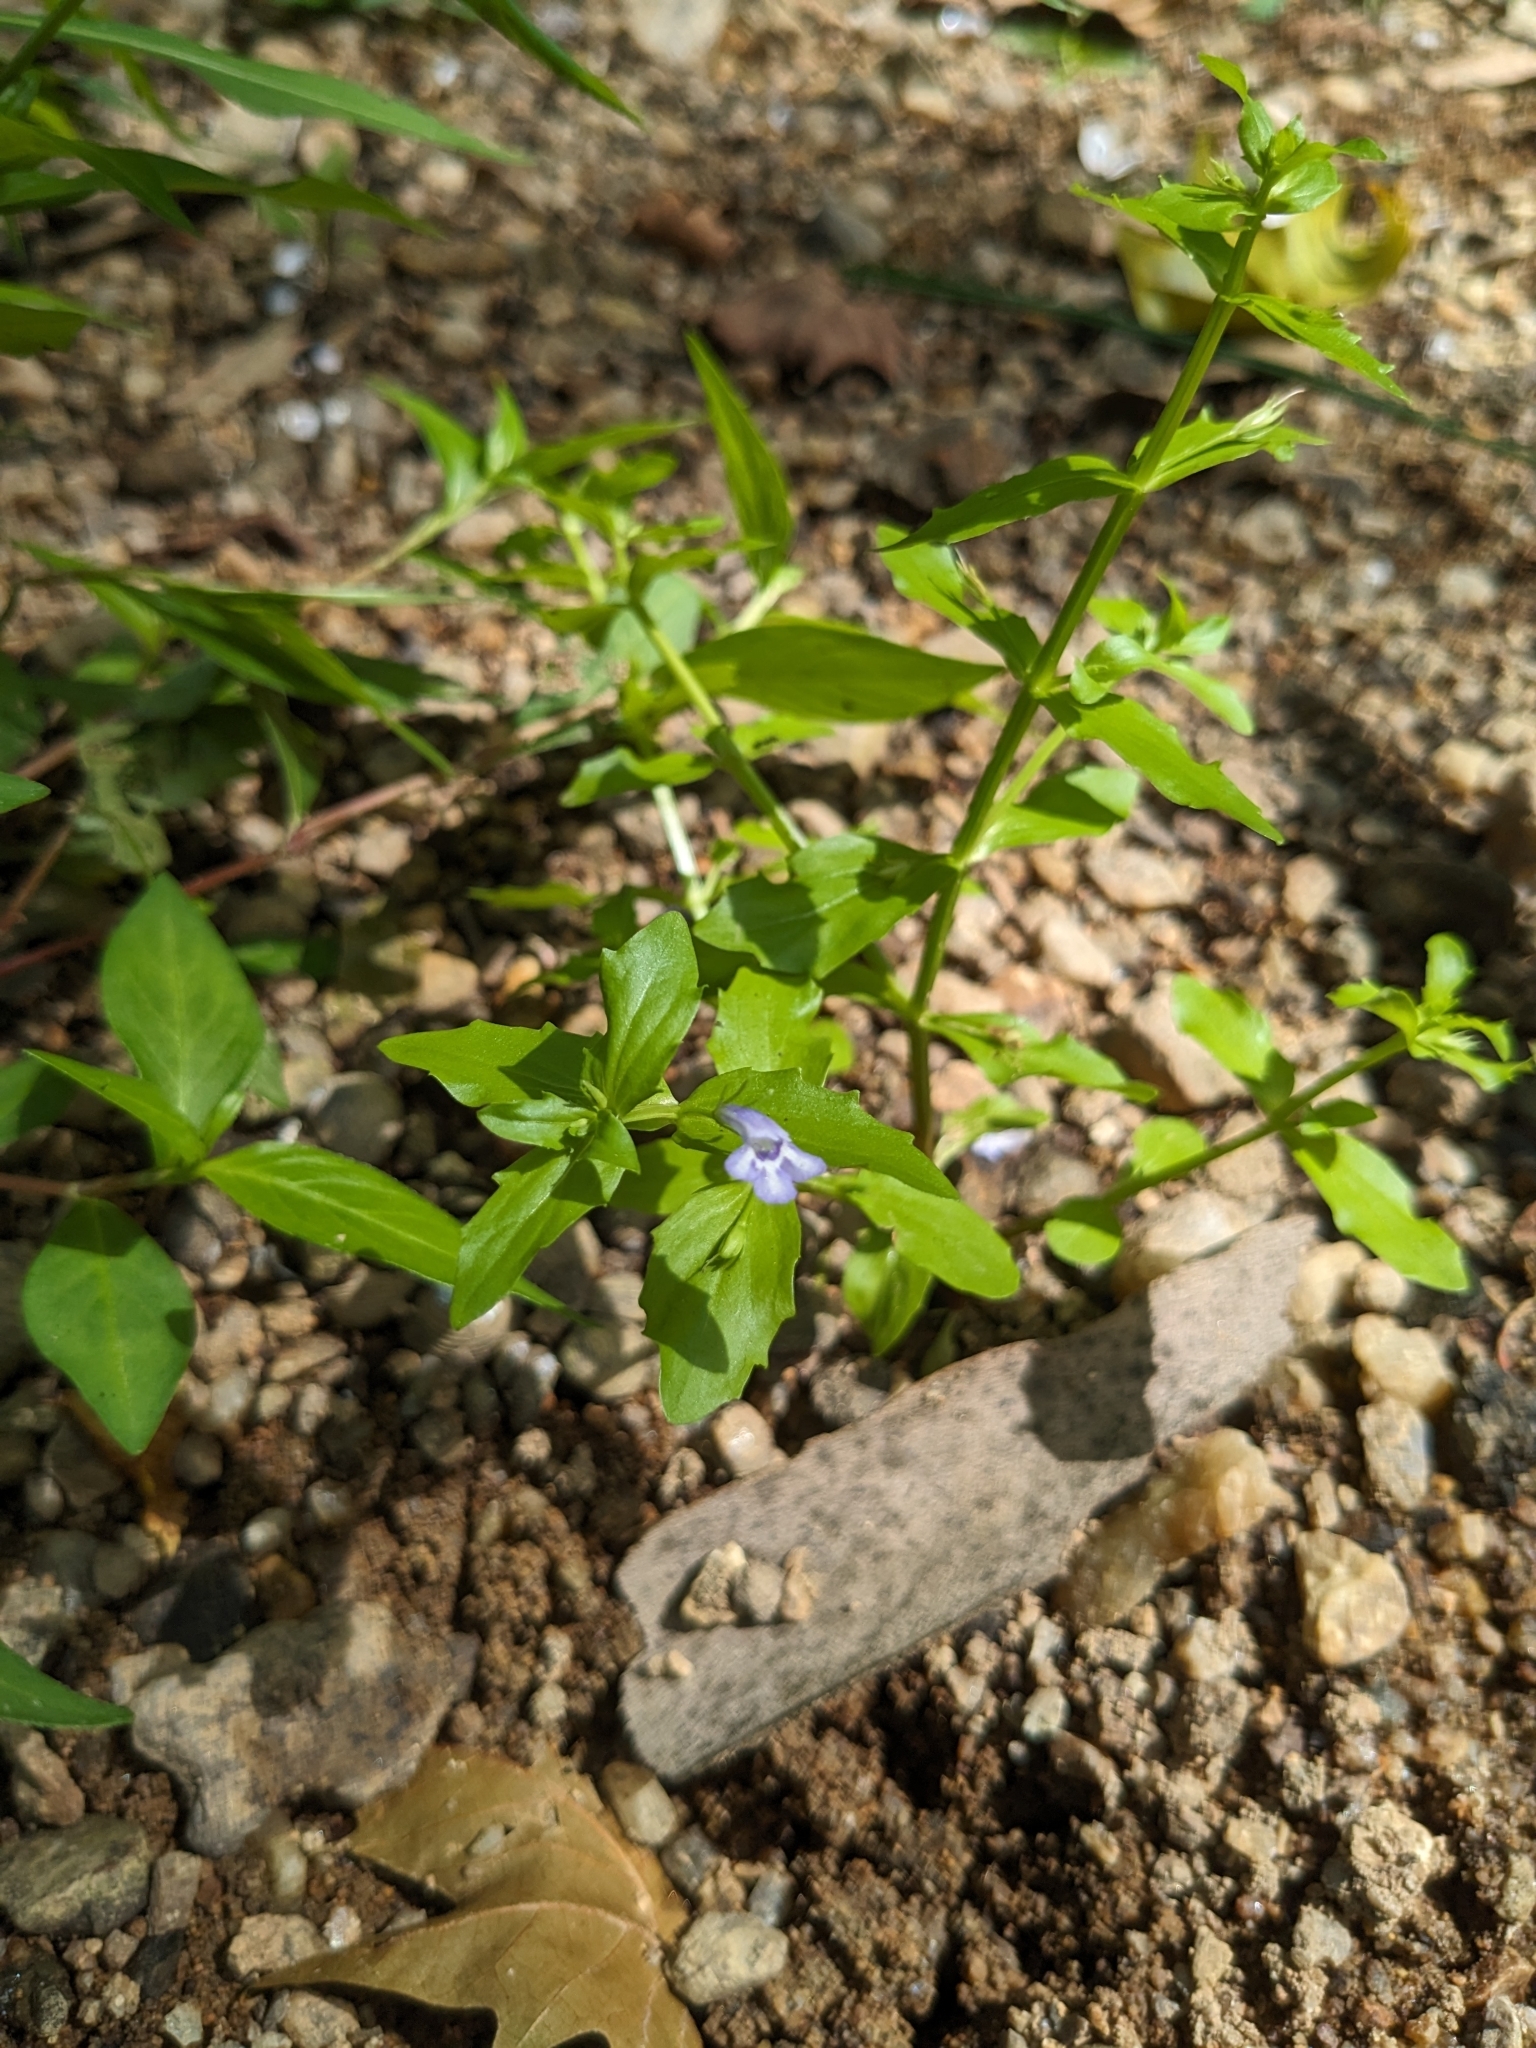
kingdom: Plantae
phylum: Tracheophyta
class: Magnoliopsida
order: Lamiales
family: Linderniaceae
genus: Lindernia
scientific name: Lindernia dubia
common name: Annual false pimpernel
